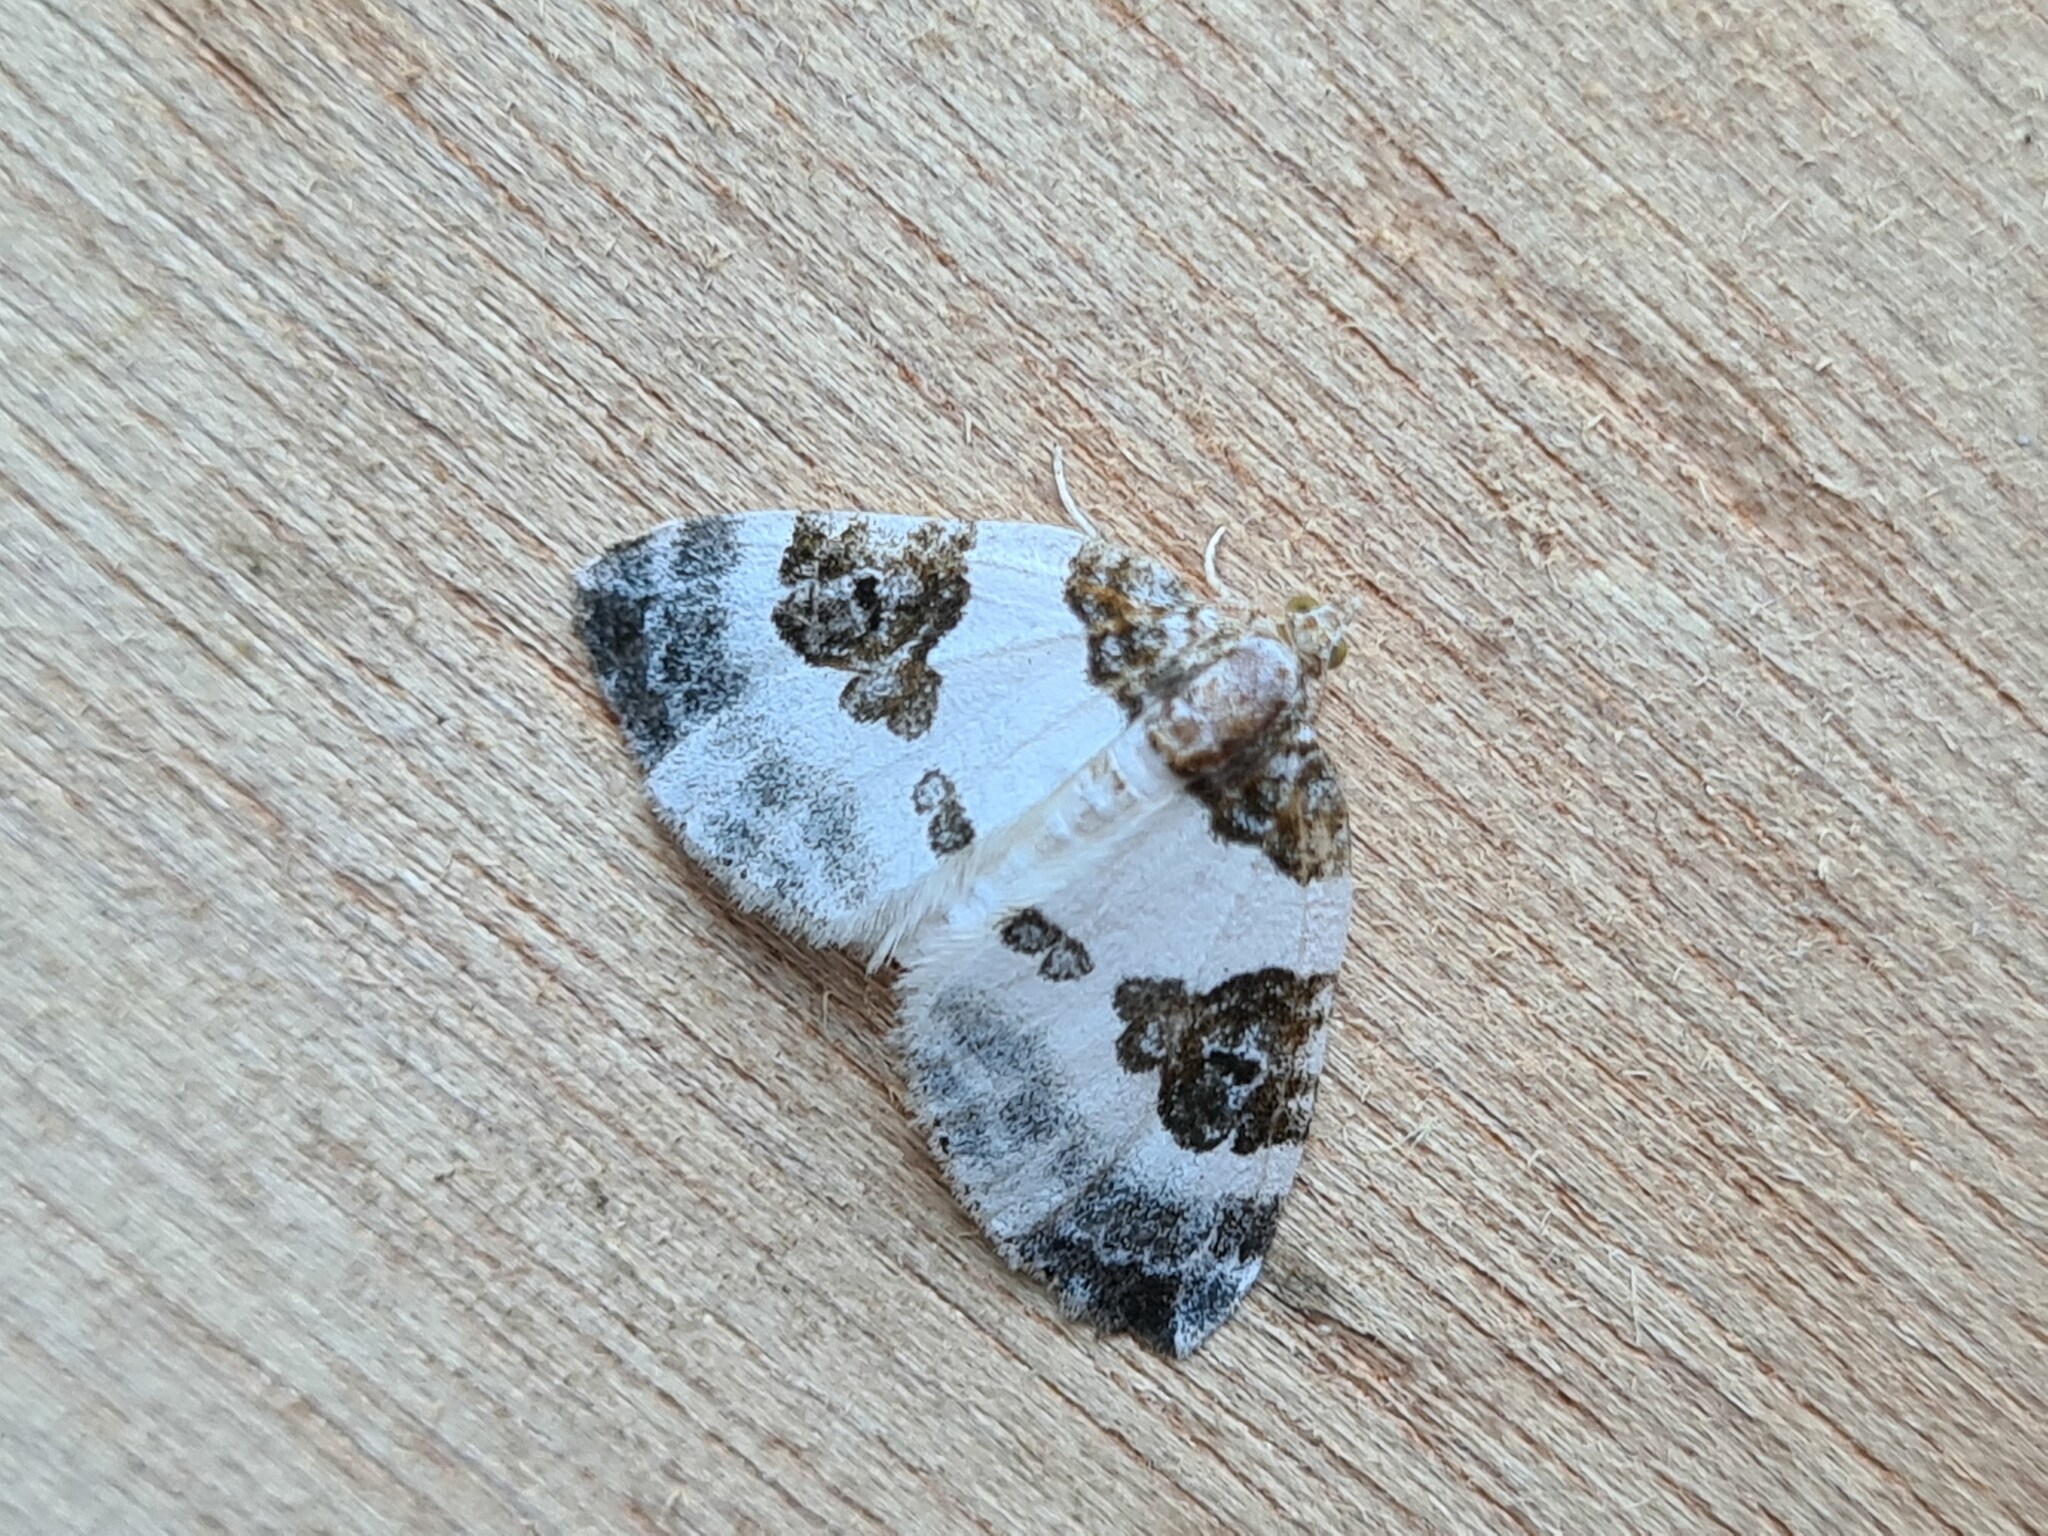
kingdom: Animalia
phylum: Arthropoda
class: Insecta
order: Lepidoptera
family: Geometridae
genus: Plemyria
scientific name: Plemyria rubiginata
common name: Blue-bordered carpet
